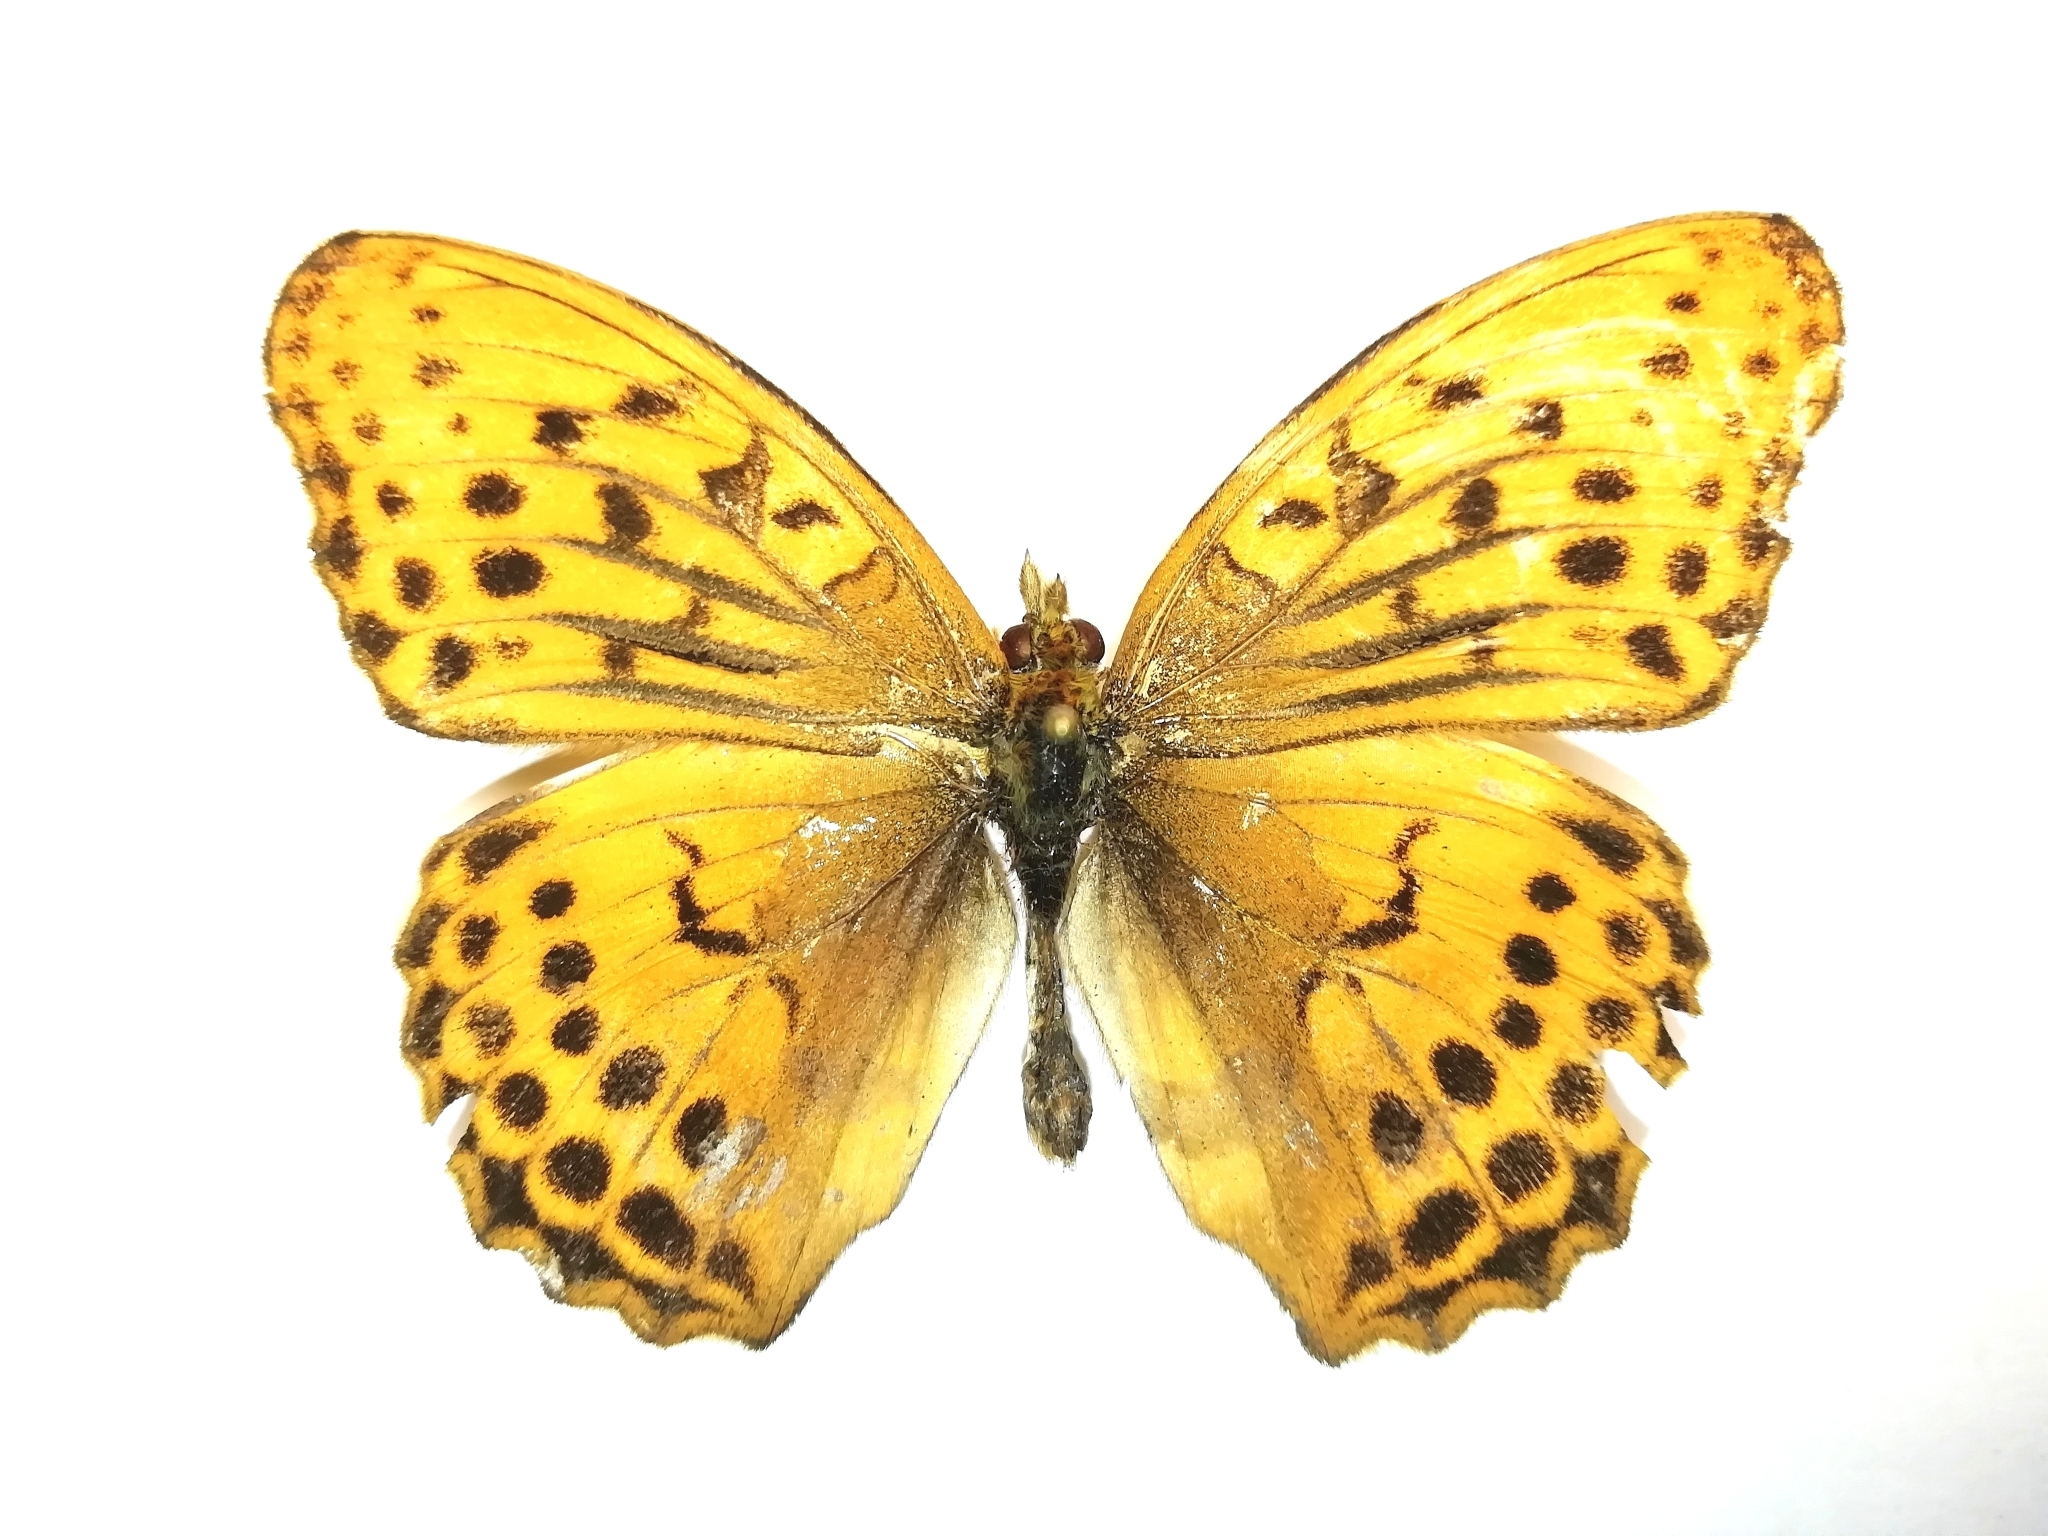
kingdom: Animalia
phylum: Arthropoda
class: Insecta
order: Lepidoptera
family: Nymphalidae
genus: Damora
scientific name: Damora sagana
